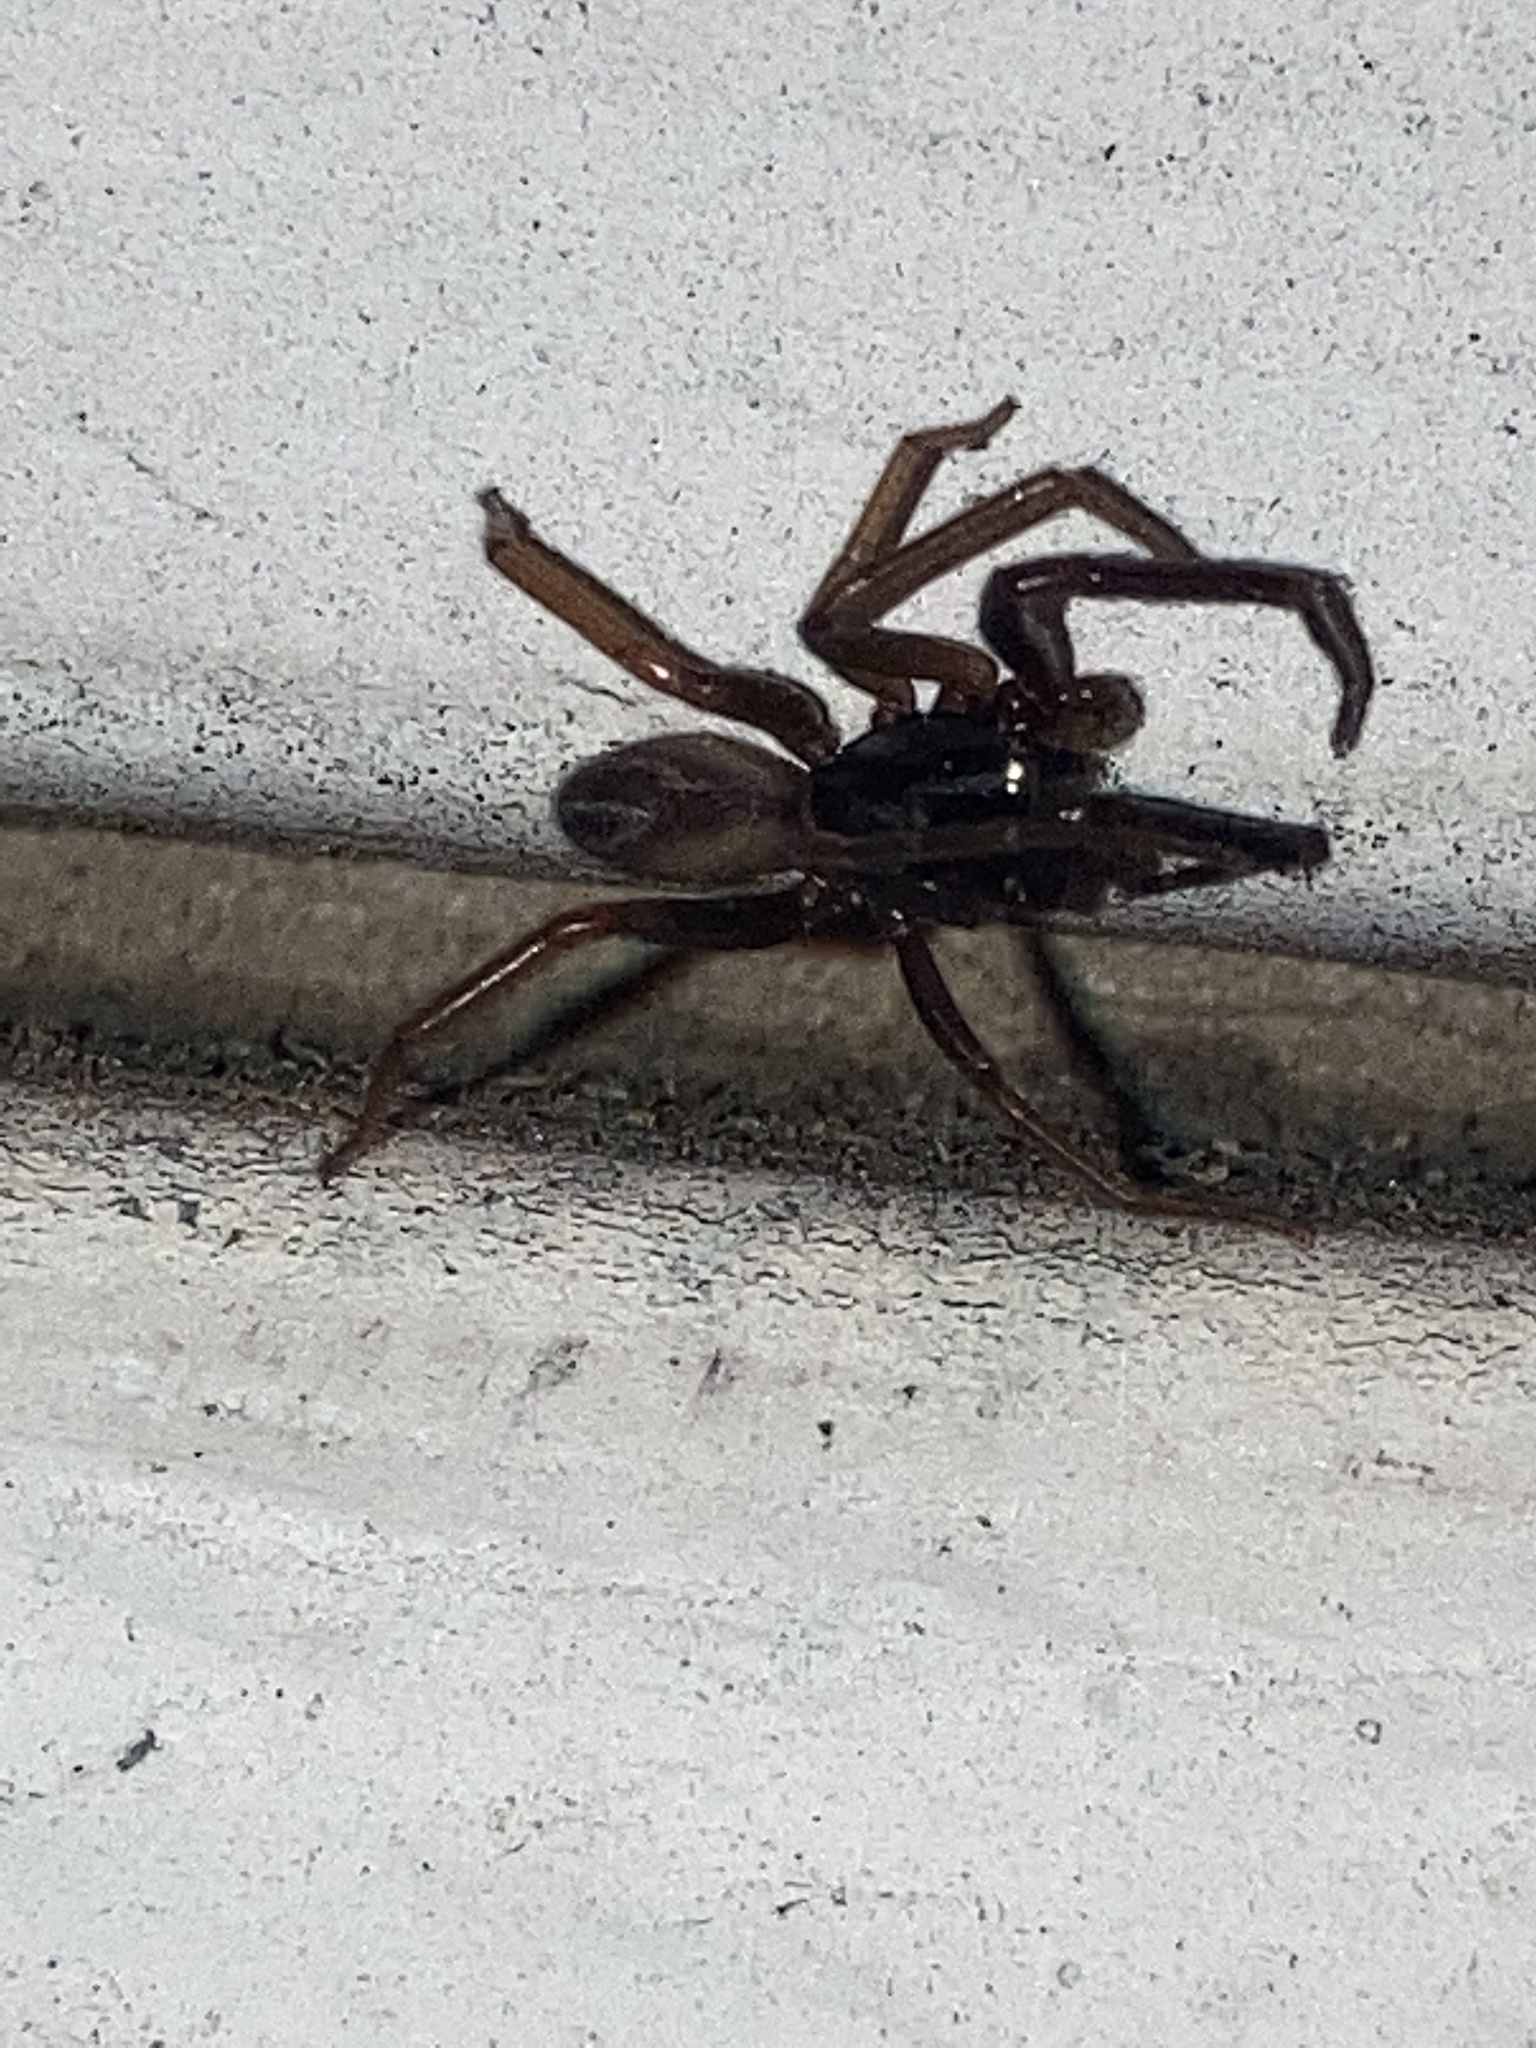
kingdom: Animalia
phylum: Arthropoda
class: Arachnida
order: Araneae
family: Segestriidae
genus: Ariadna
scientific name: Ariadna bicolor
